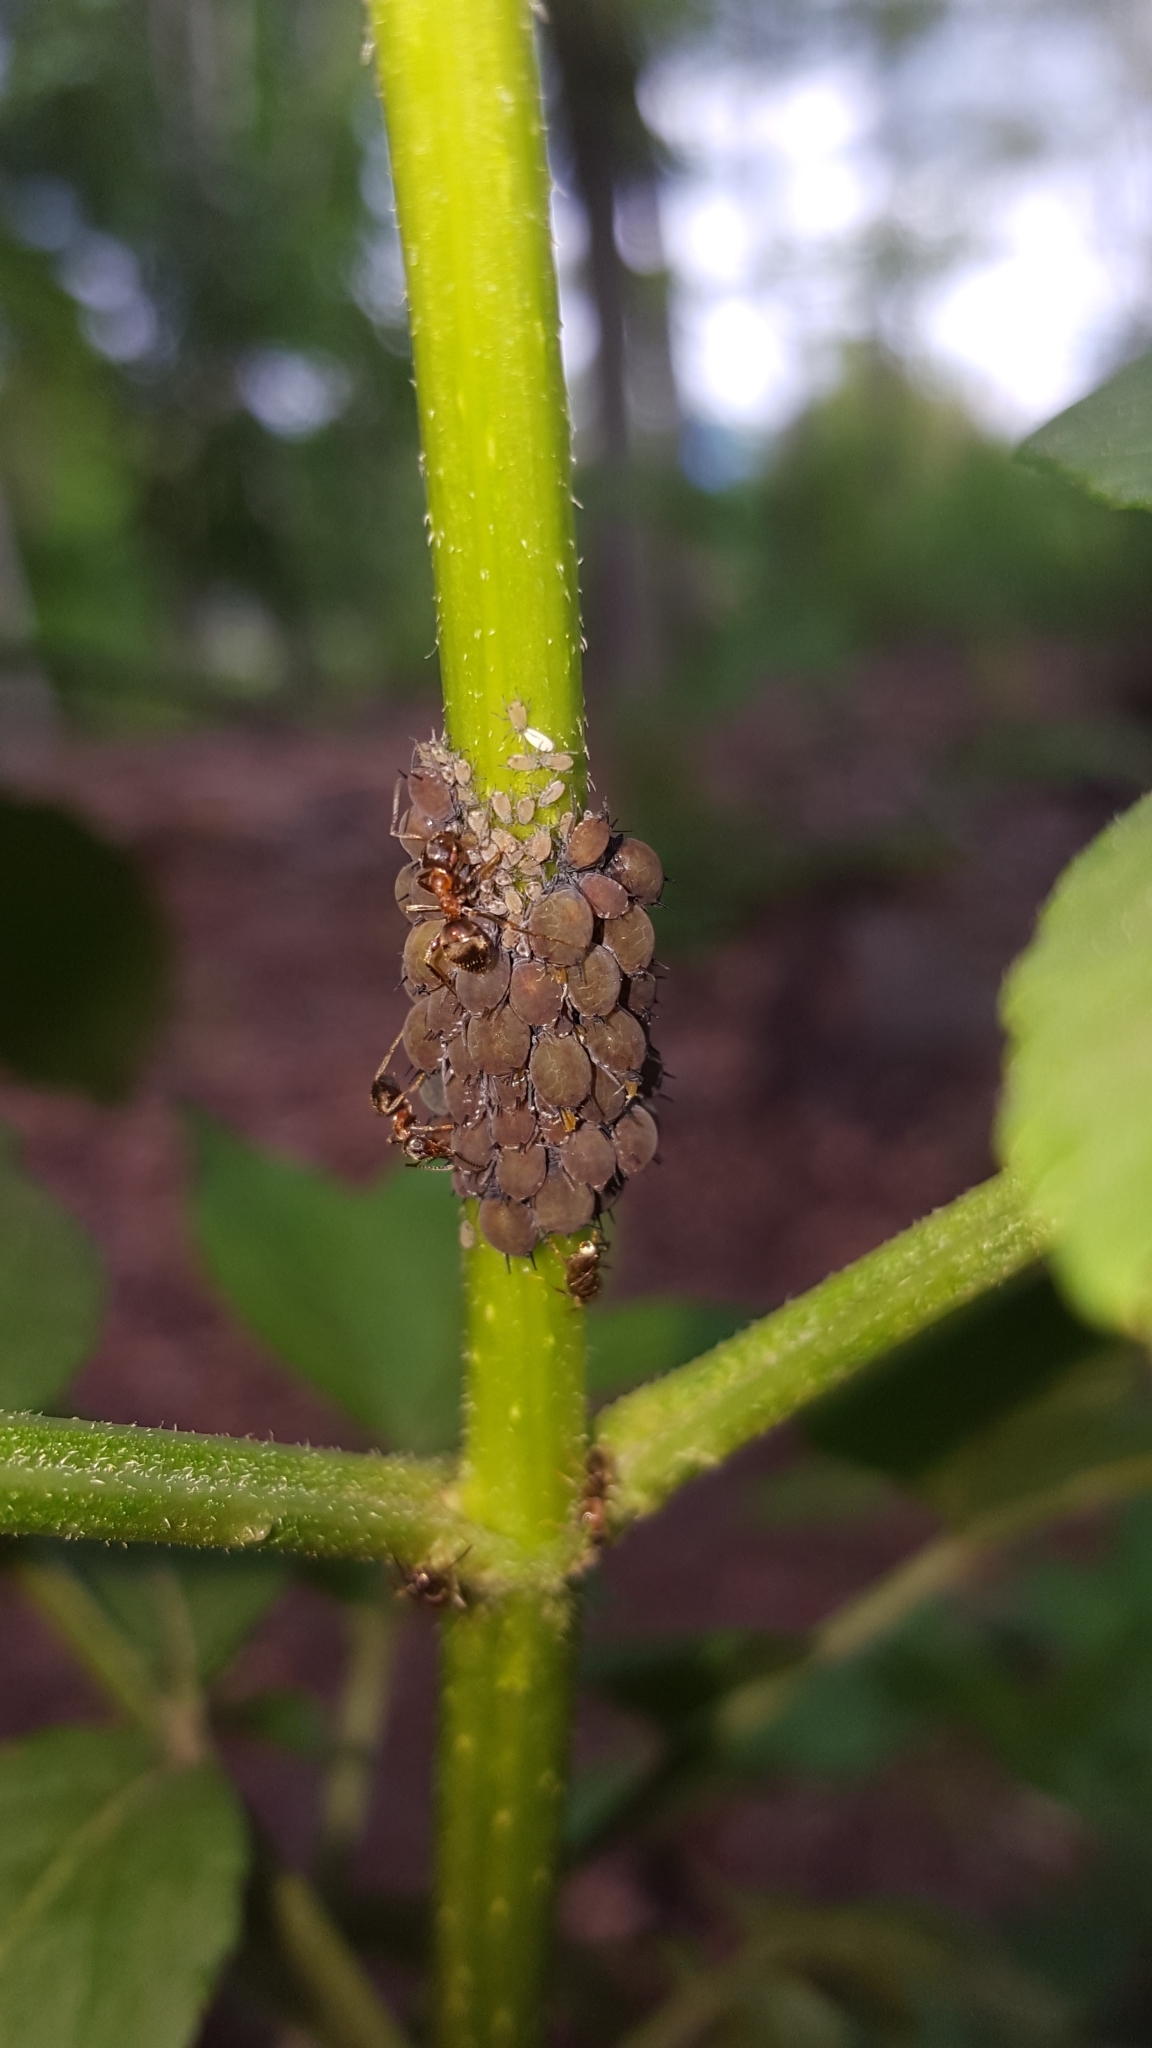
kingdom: Animalia
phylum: Arthropoda
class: Insecta
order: Hemiptera
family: Aphididae
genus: Aphis
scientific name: Aphis sambuci
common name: Elder aphid
